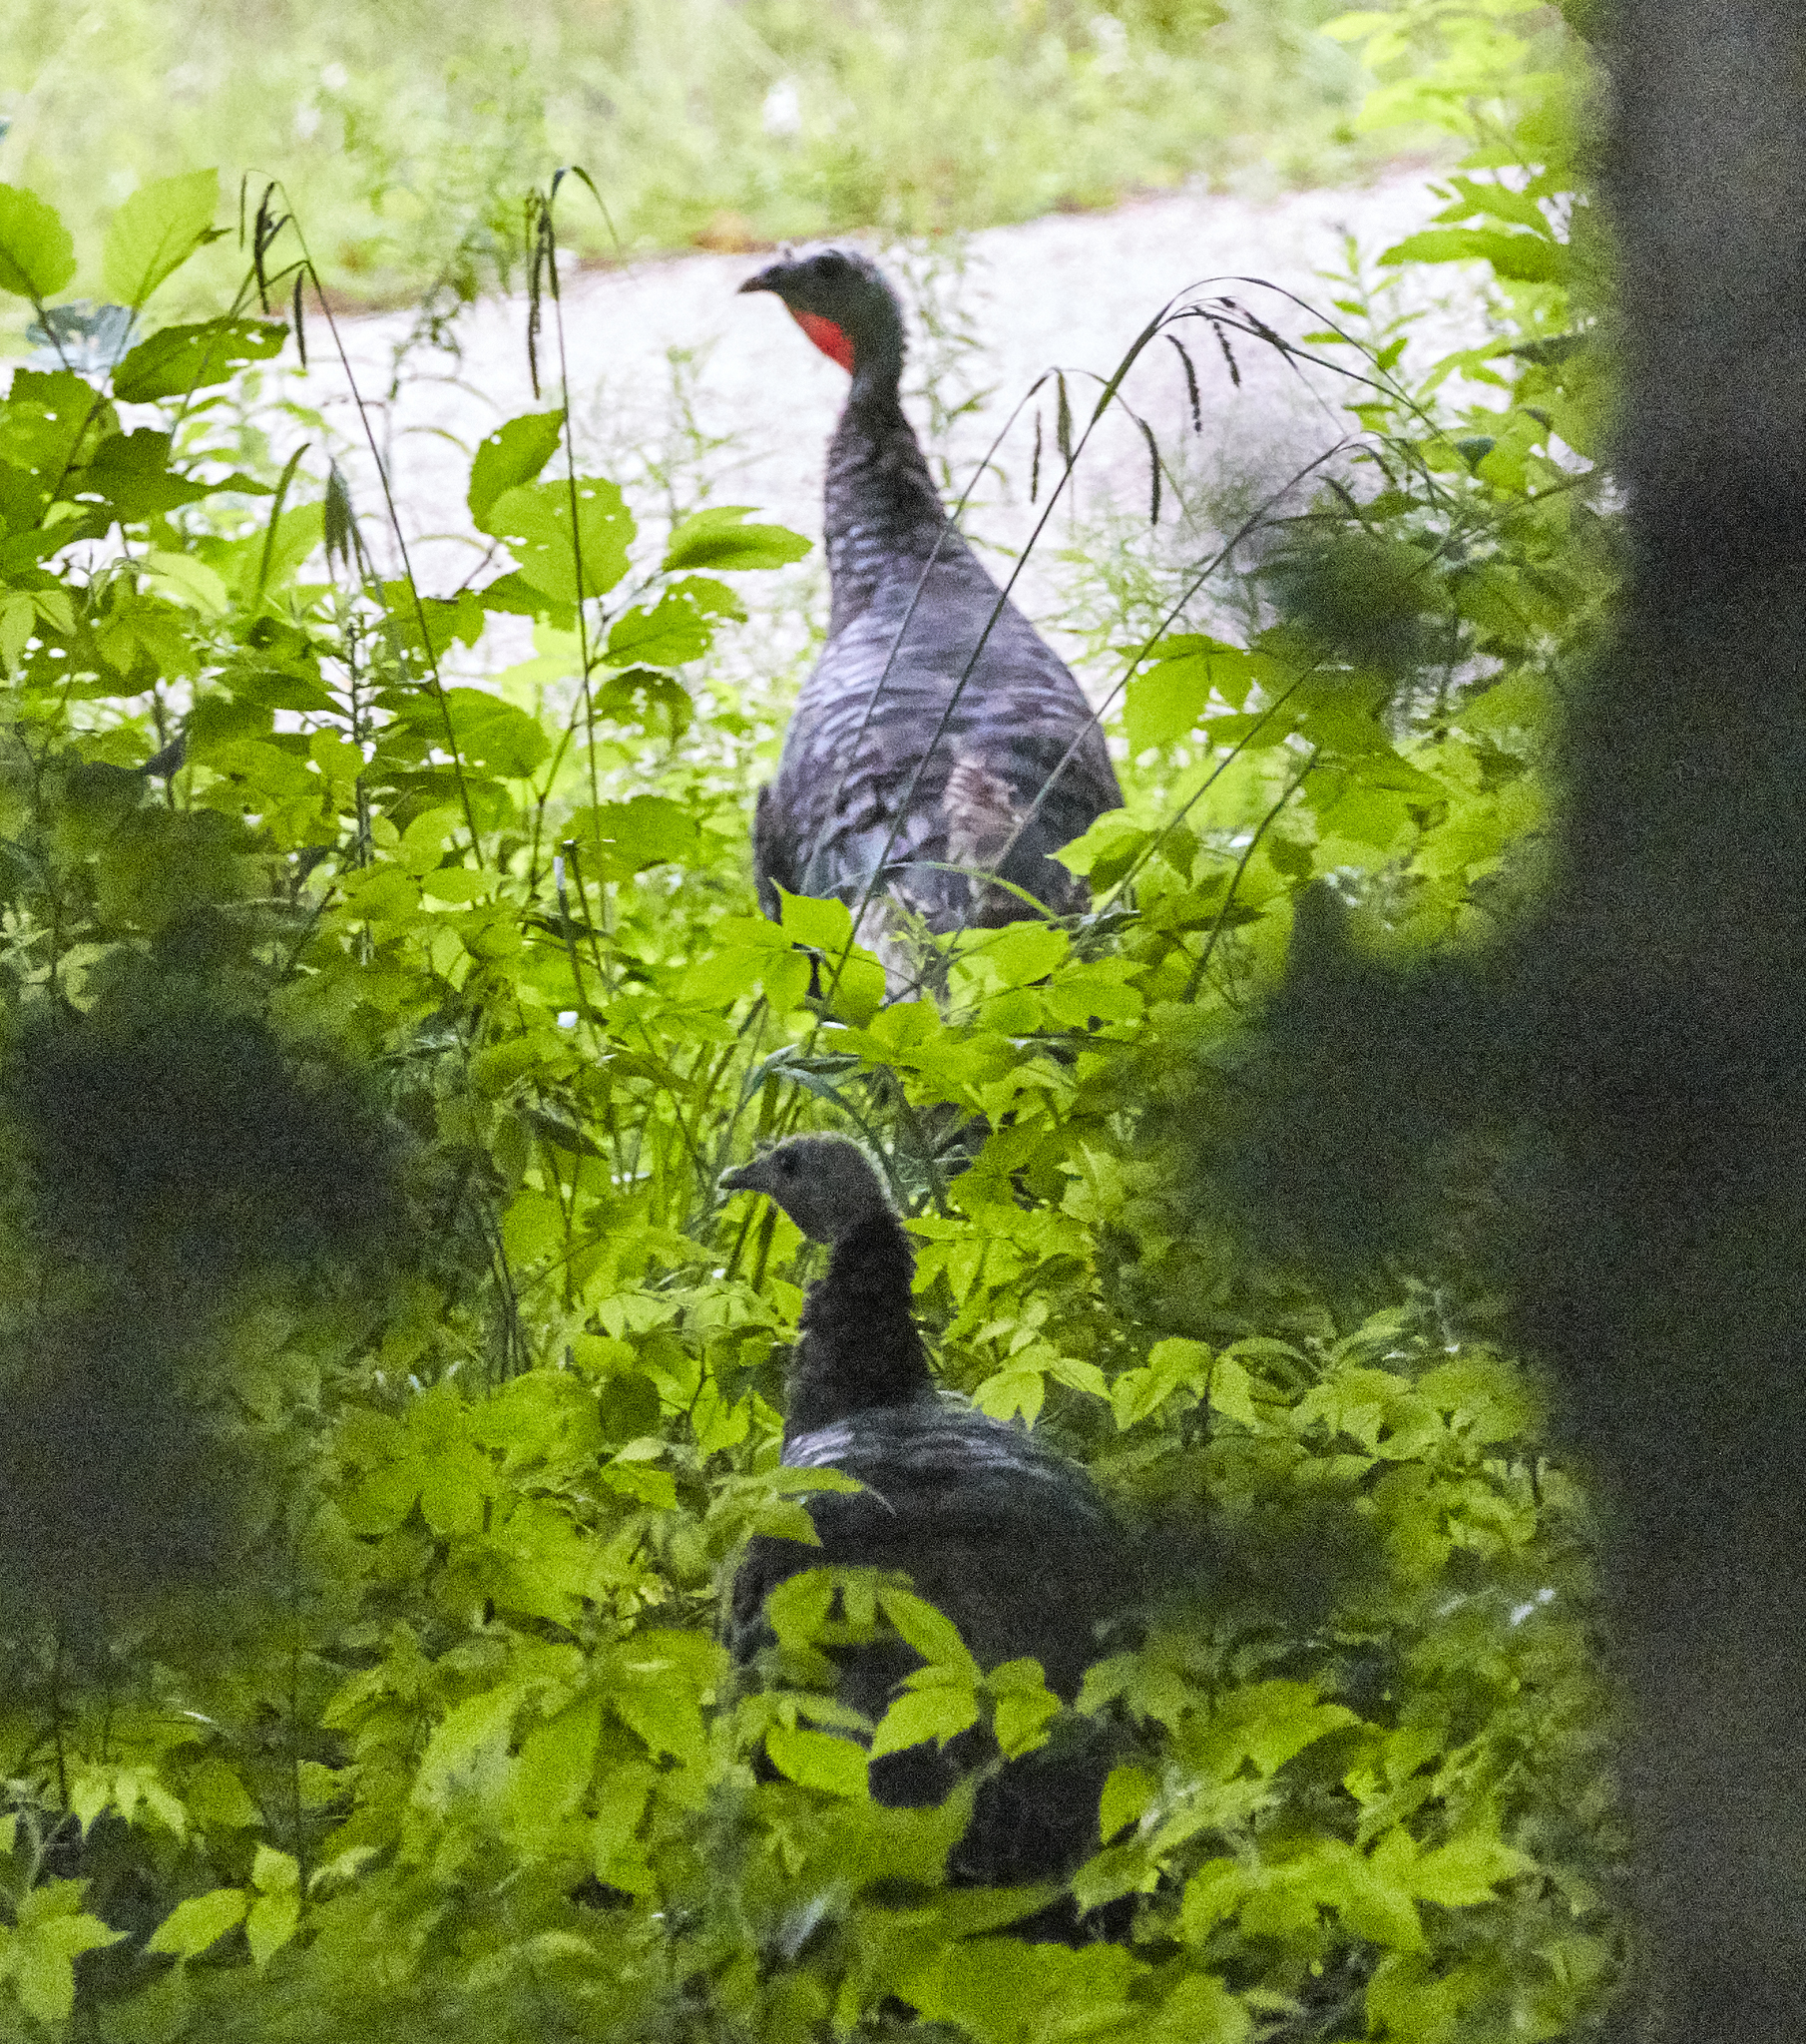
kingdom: Animalia
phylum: Chordata
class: Aves
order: Galliformes
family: Phasianidae
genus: Meleagris
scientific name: Meleagris gallopavo
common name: Wild turkey
